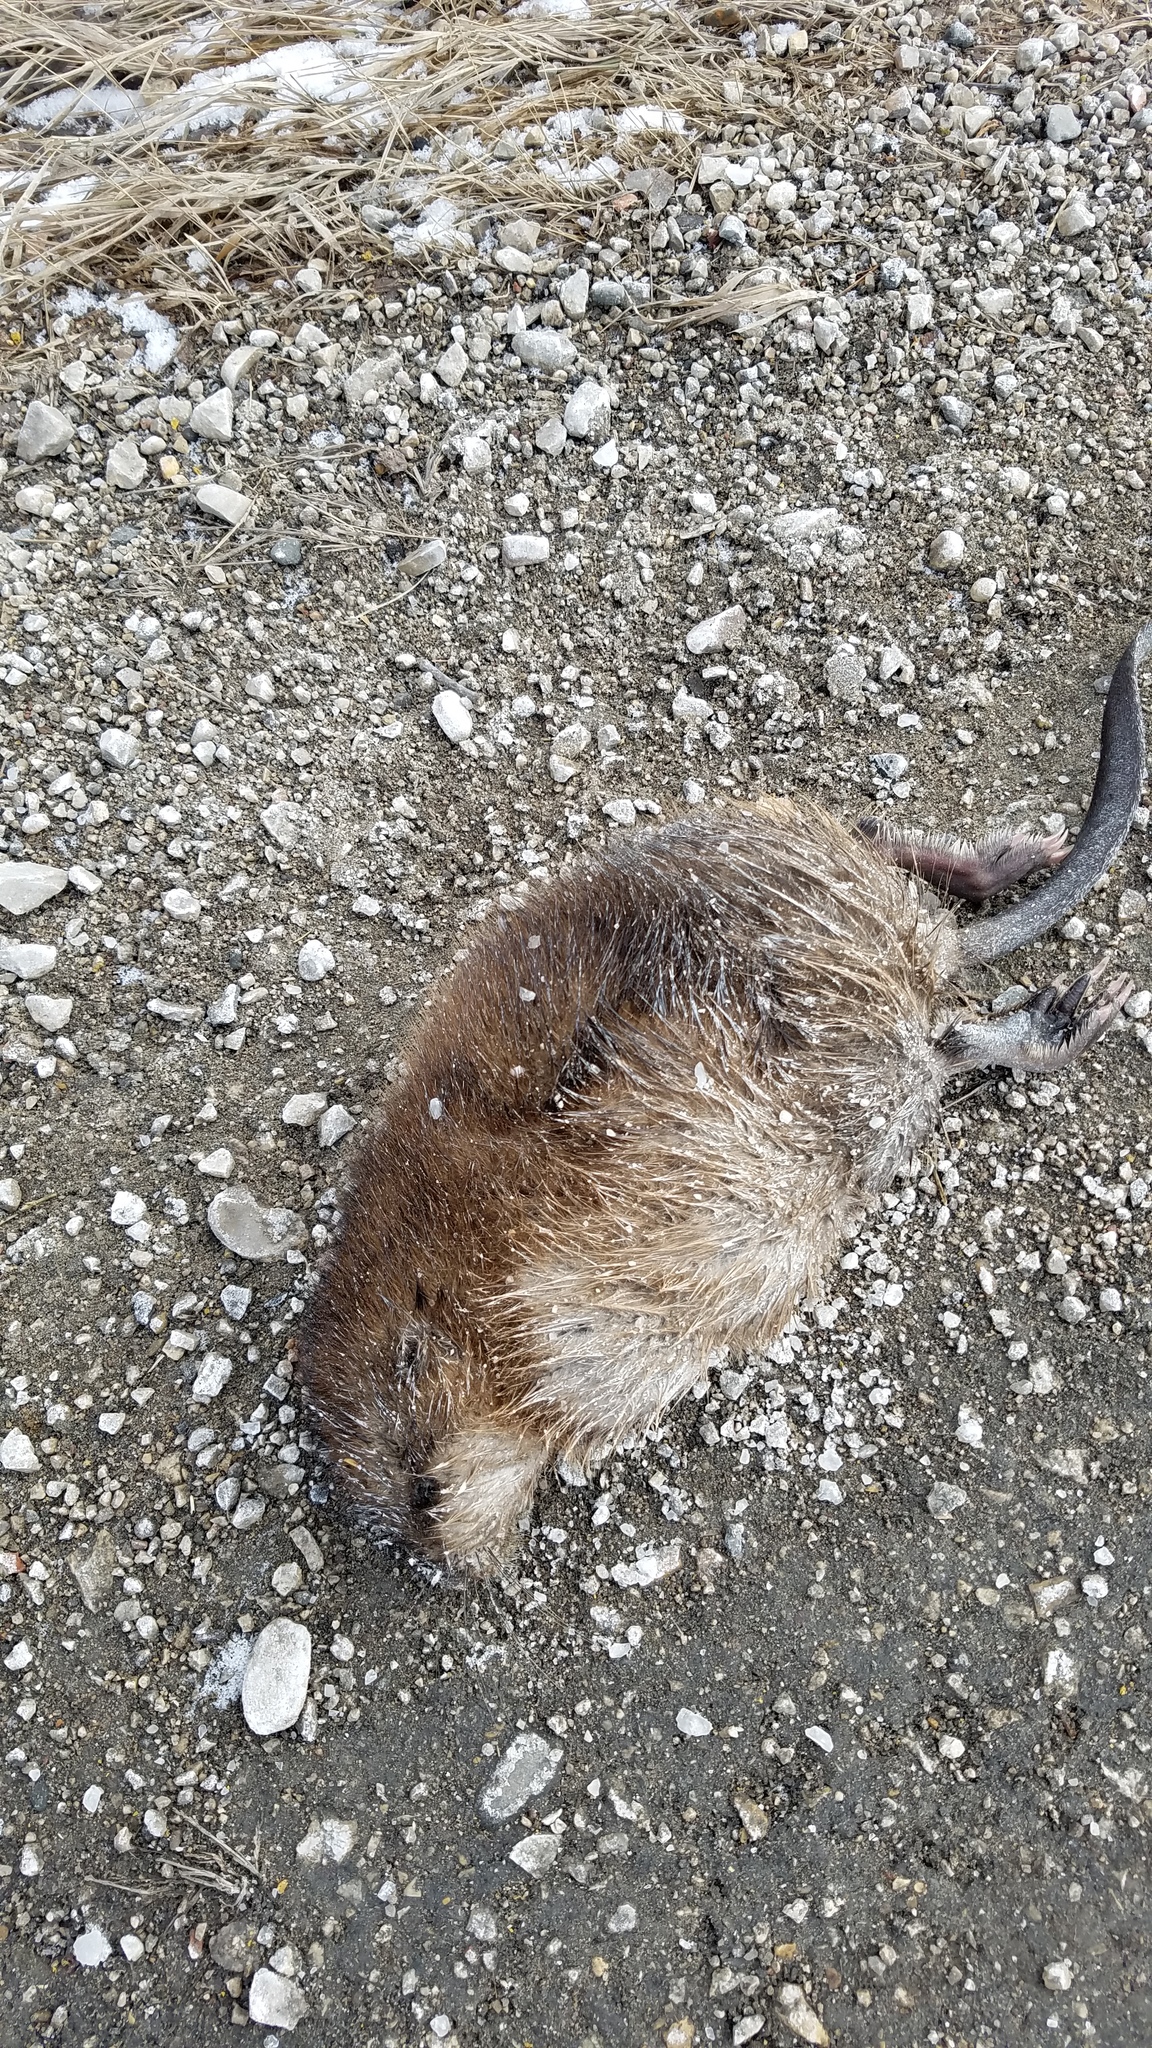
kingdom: Animalia
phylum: Chordata
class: Mammalia
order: Rodentia
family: Cricetidae
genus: Ondatra
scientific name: Ondatra zibethicus
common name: Muskrat
